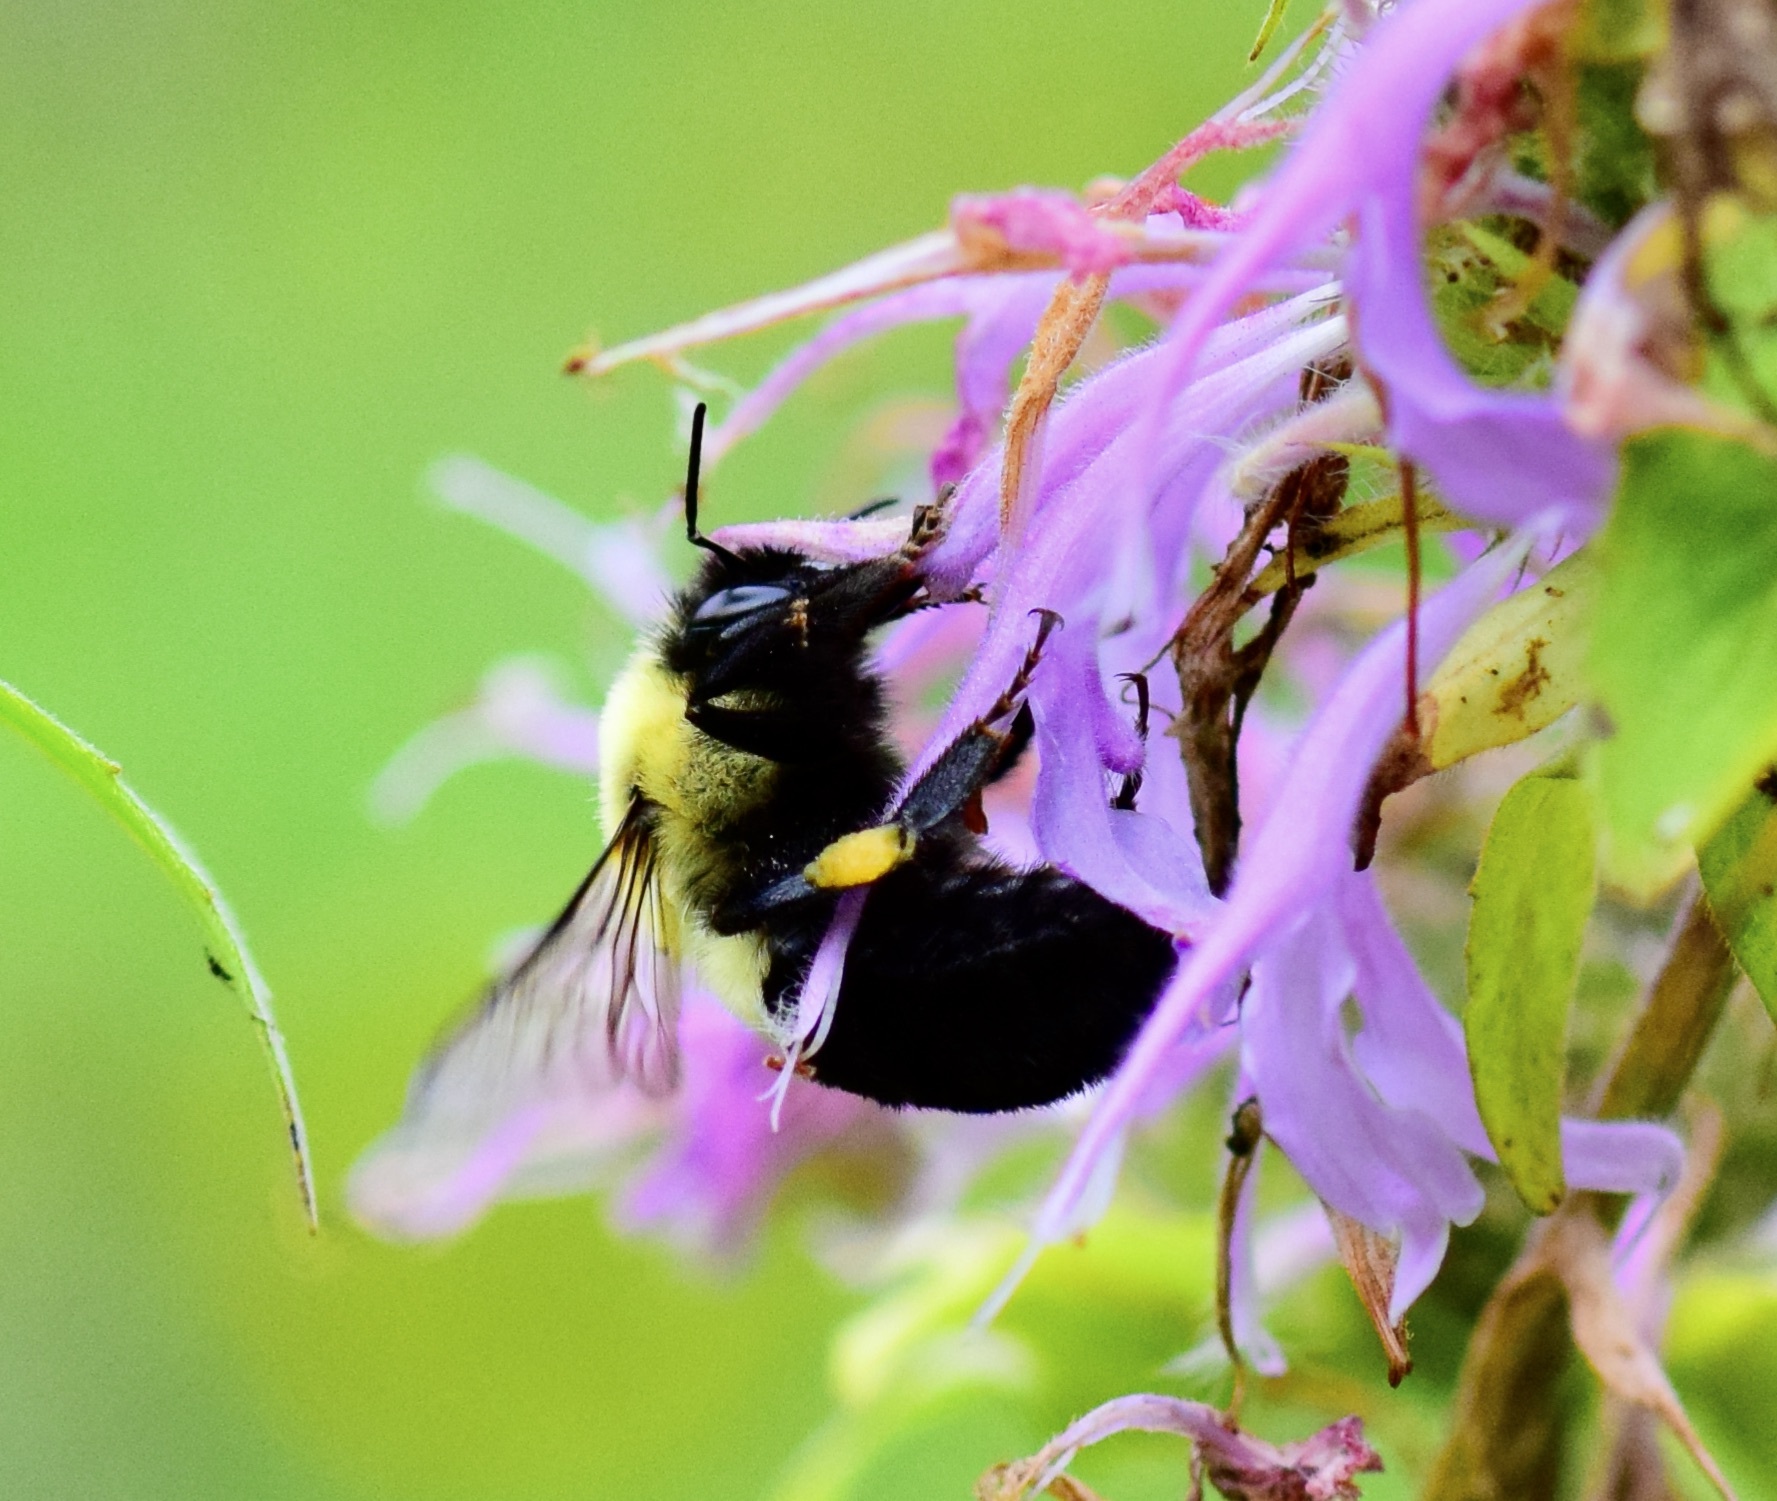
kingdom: Animalia
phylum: Arthropoda
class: Insecta
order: Hymenoptera
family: Apidae
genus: Bombus
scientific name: Bombus impatiens
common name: Common eastern bumble bee
